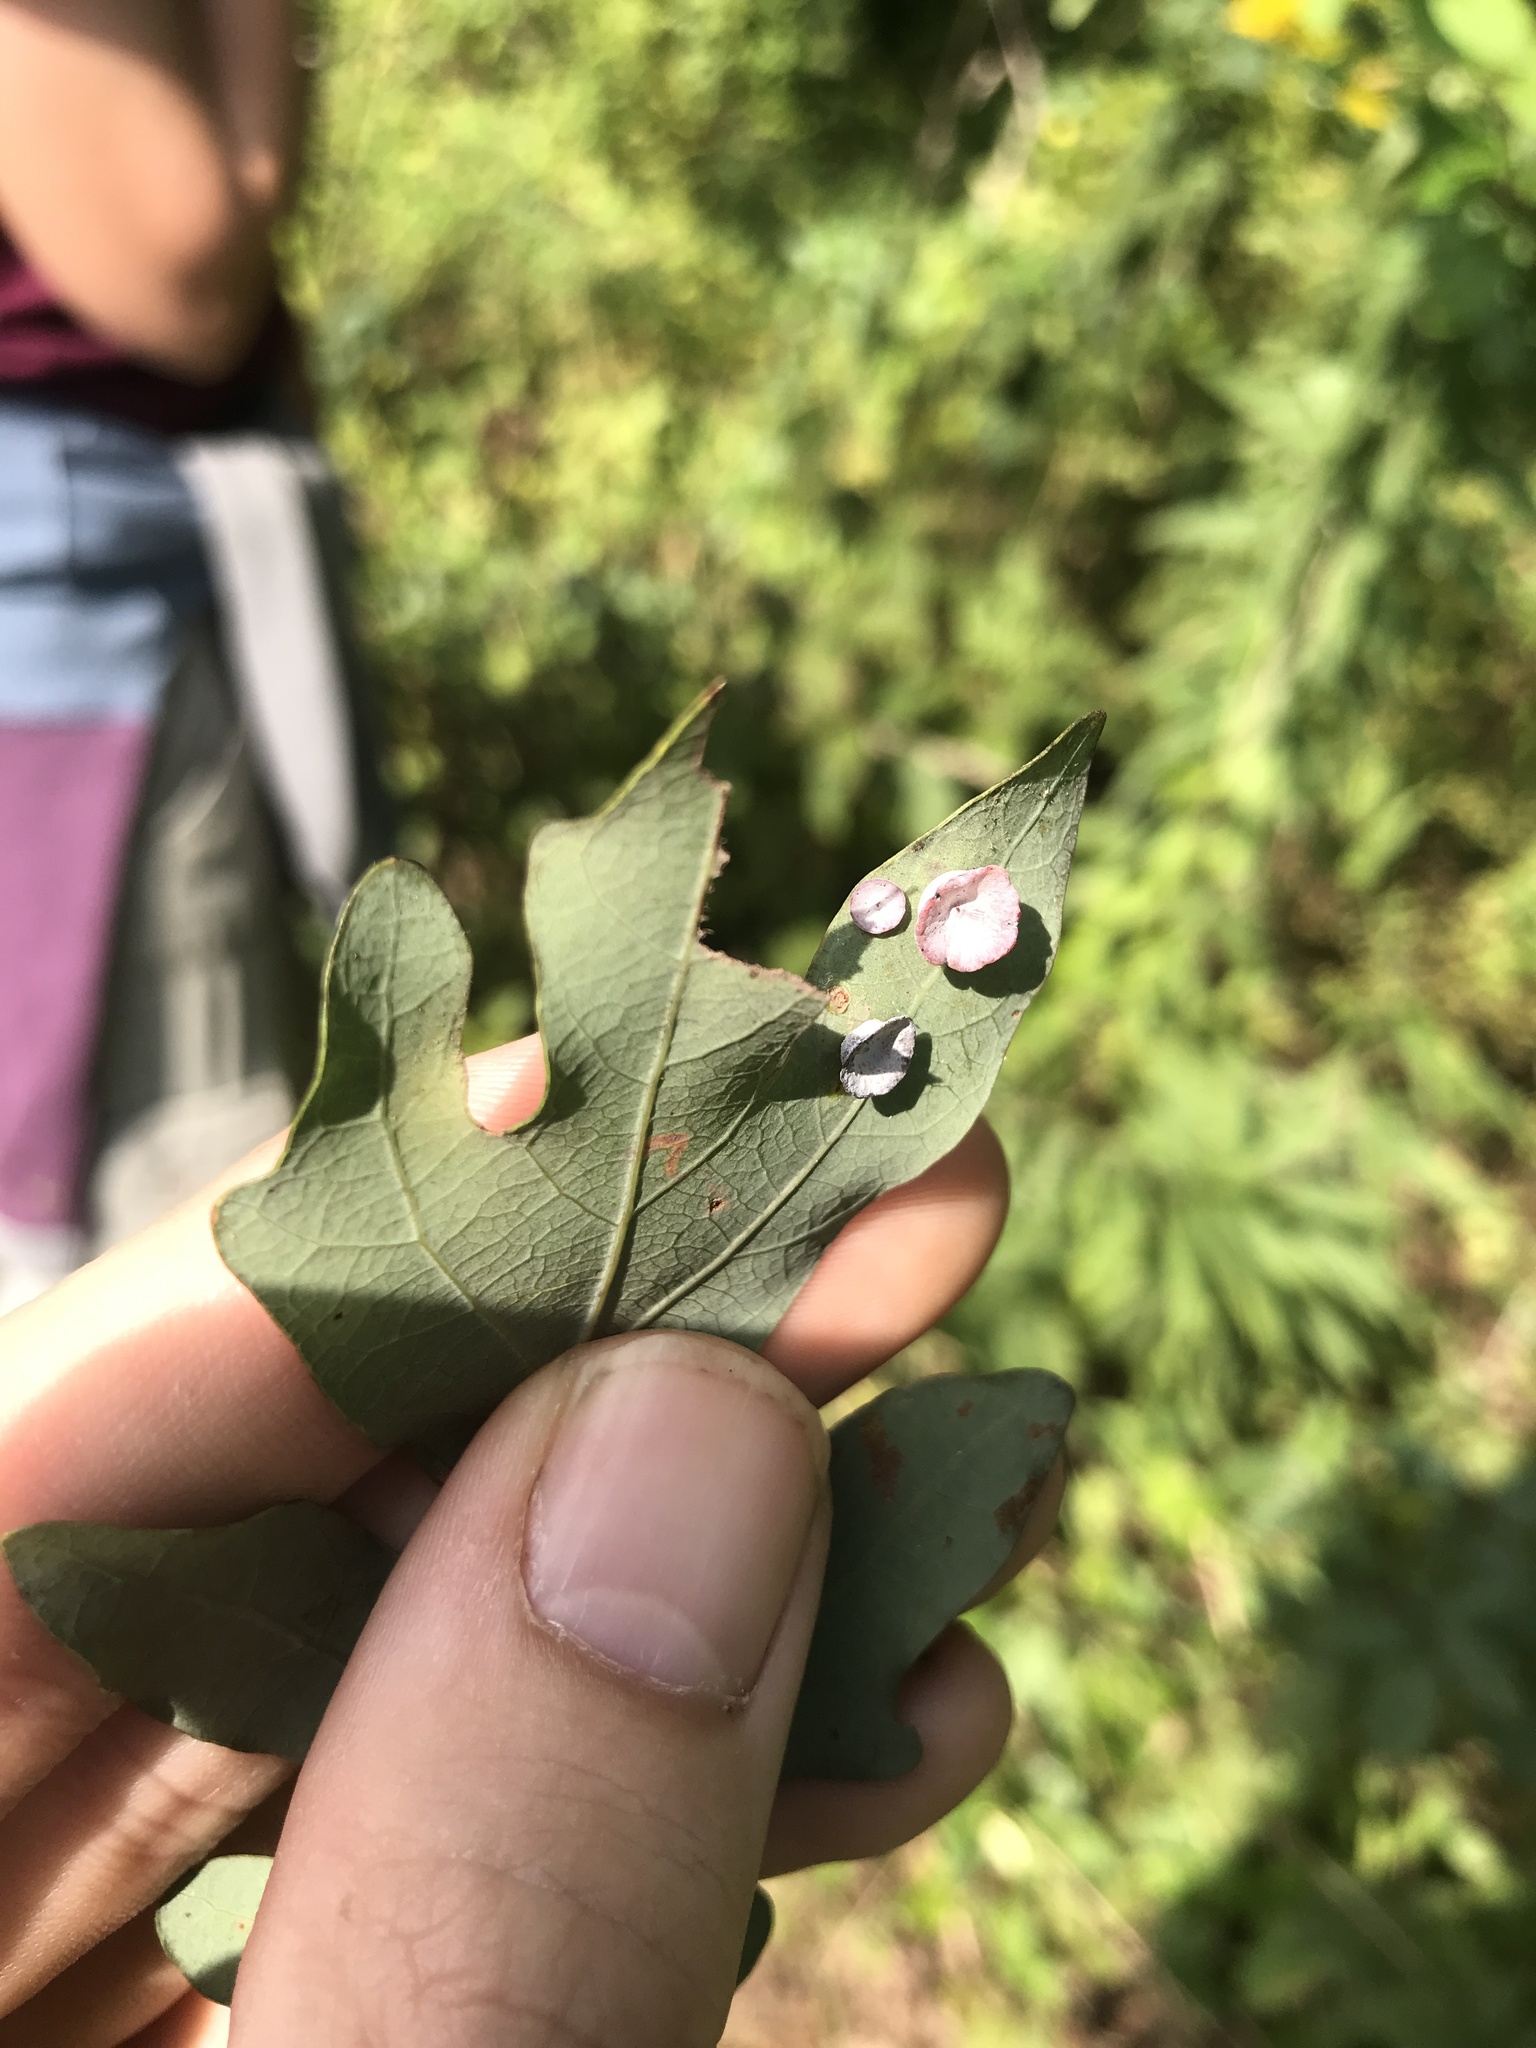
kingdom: Animalia
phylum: Arthropoda
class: Insecta
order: Hymenoptera
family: Cynipidae
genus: Phylloteras
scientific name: Phylloteras poculum
